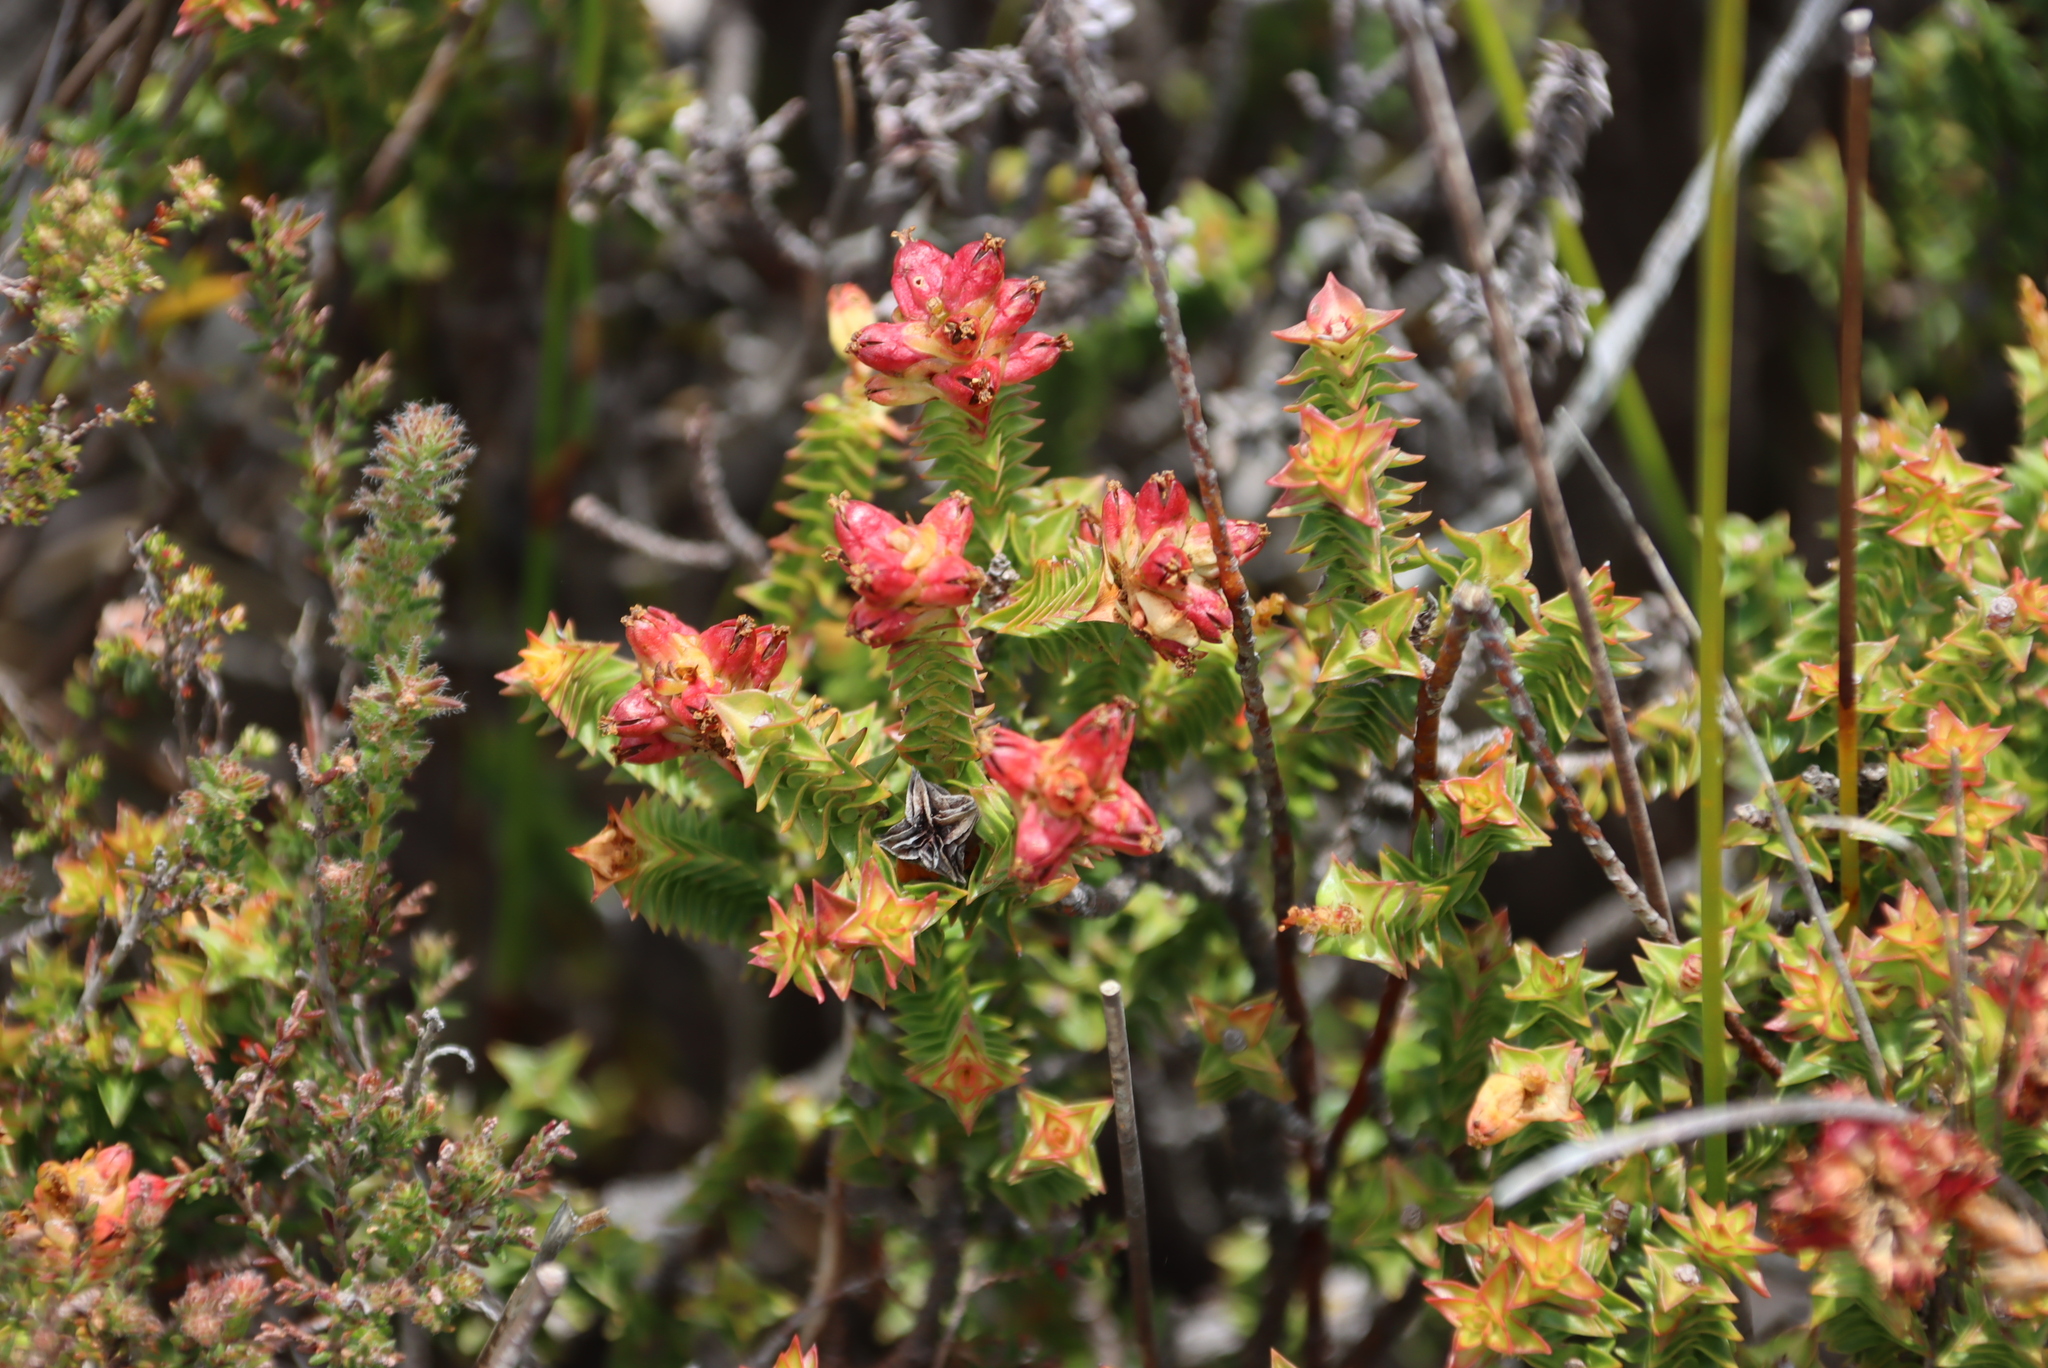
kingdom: Plantae
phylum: Tracheophyta
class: Magnoliopsida
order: Myrtales
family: Penaeaceae
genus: Penaea
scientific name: Penaea mucronata
